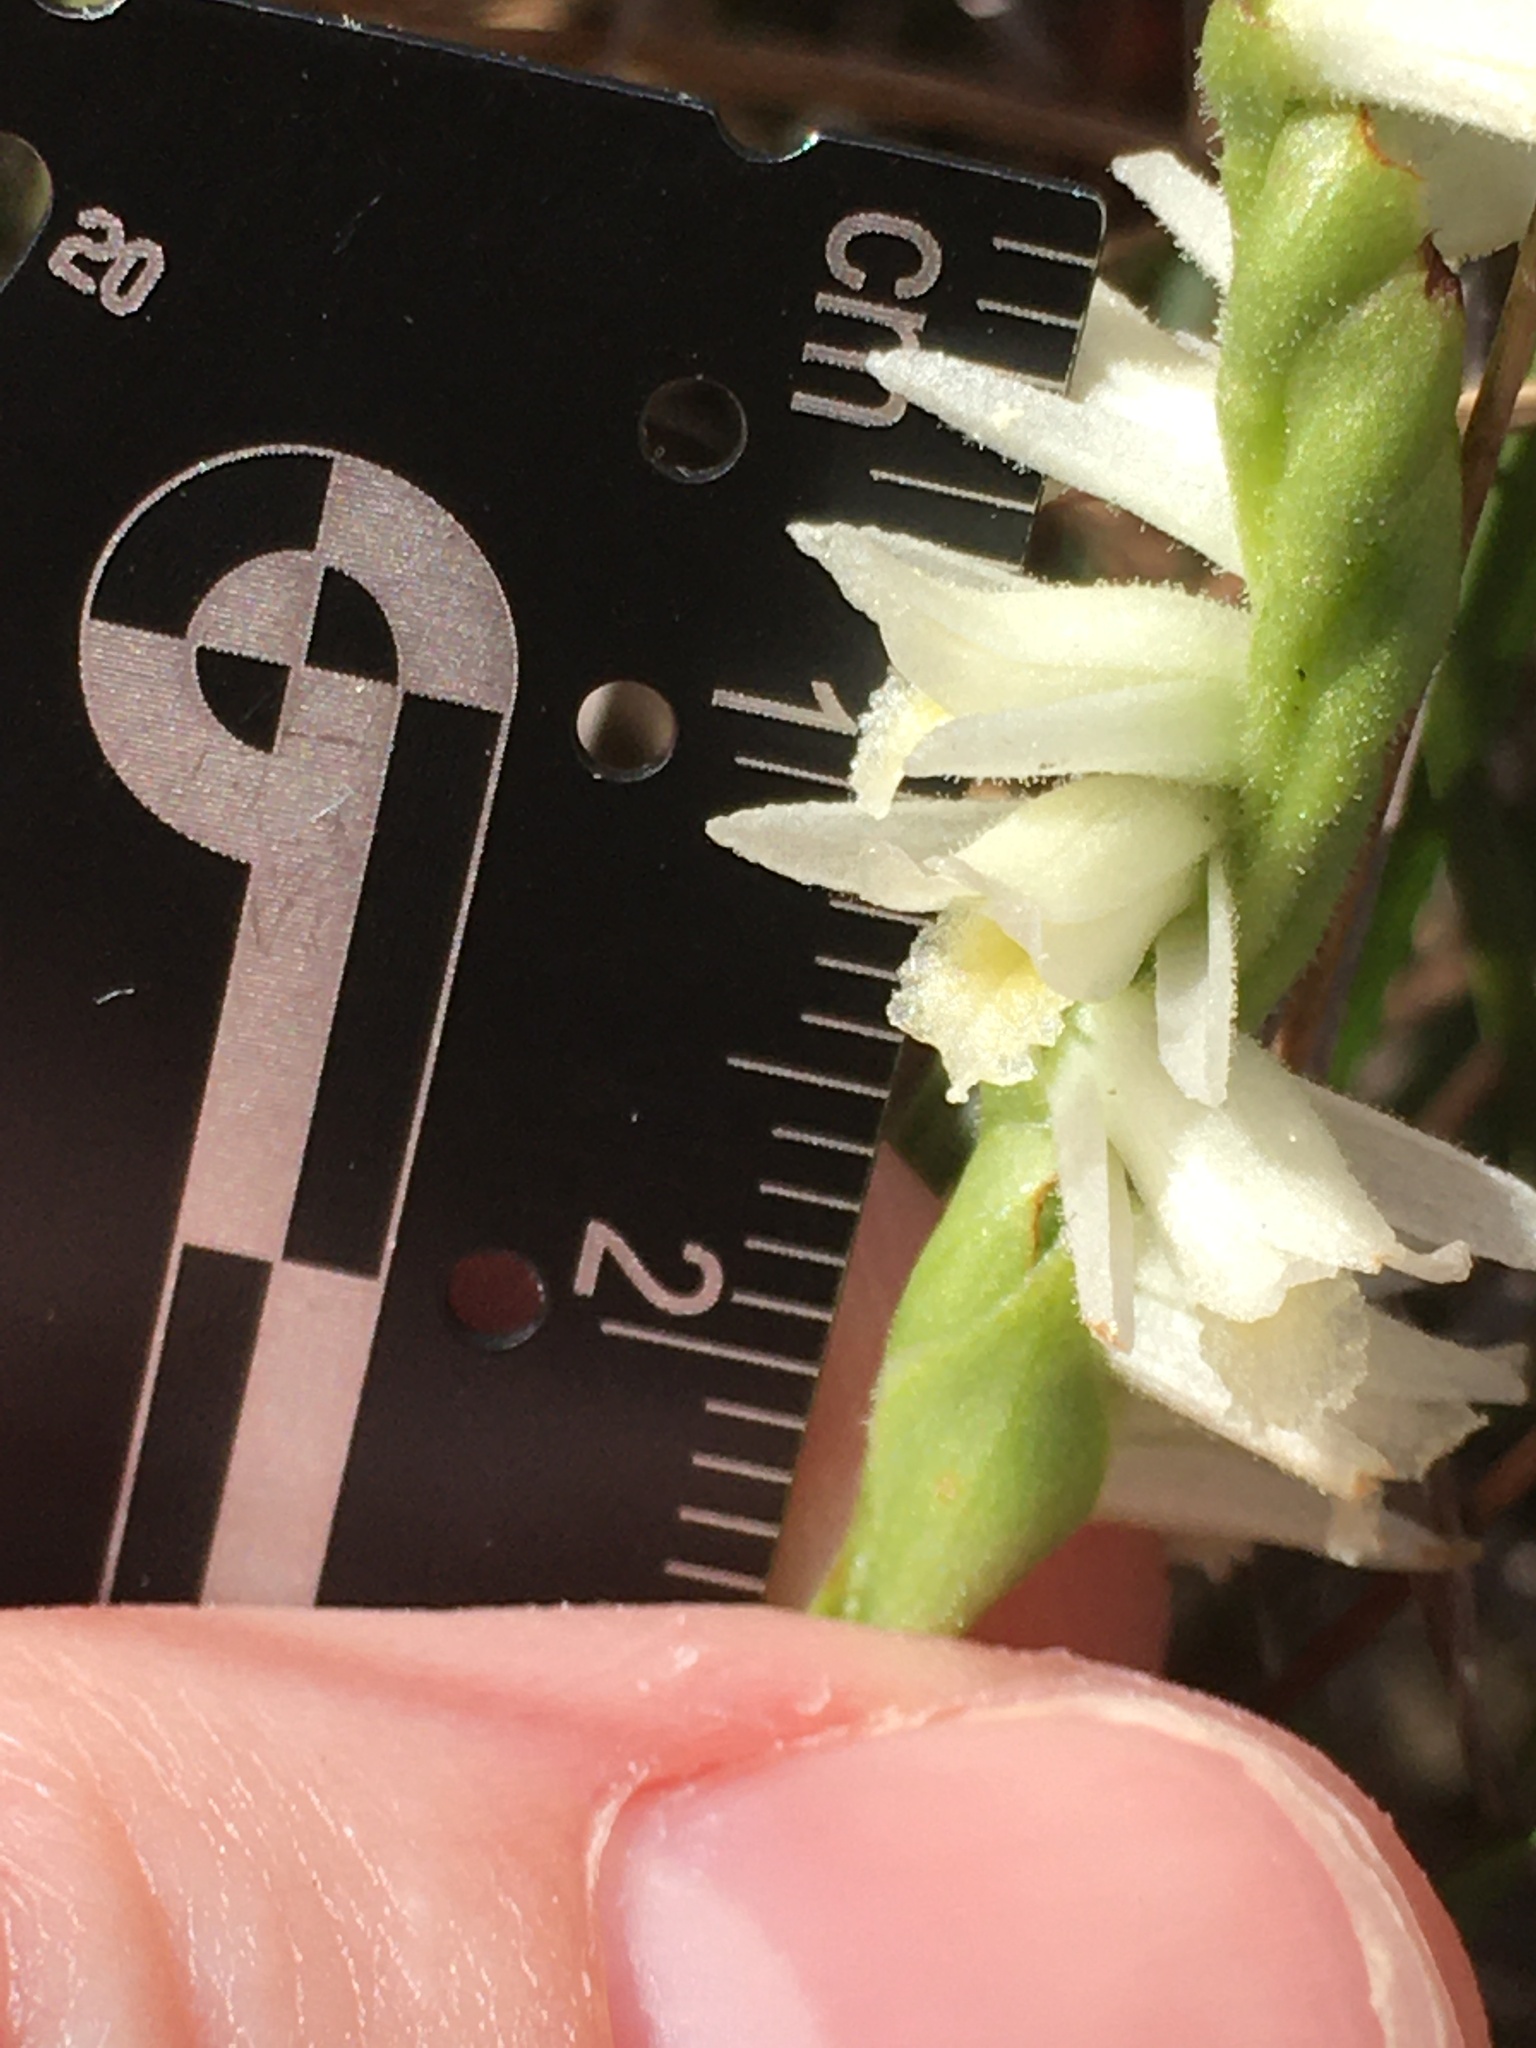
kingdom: Plantae
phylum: Tracheophyta
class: Liliopsida
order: Asparagales
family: Orchidaceae
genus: Spiranthes
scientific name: Spiranthes longilabris
